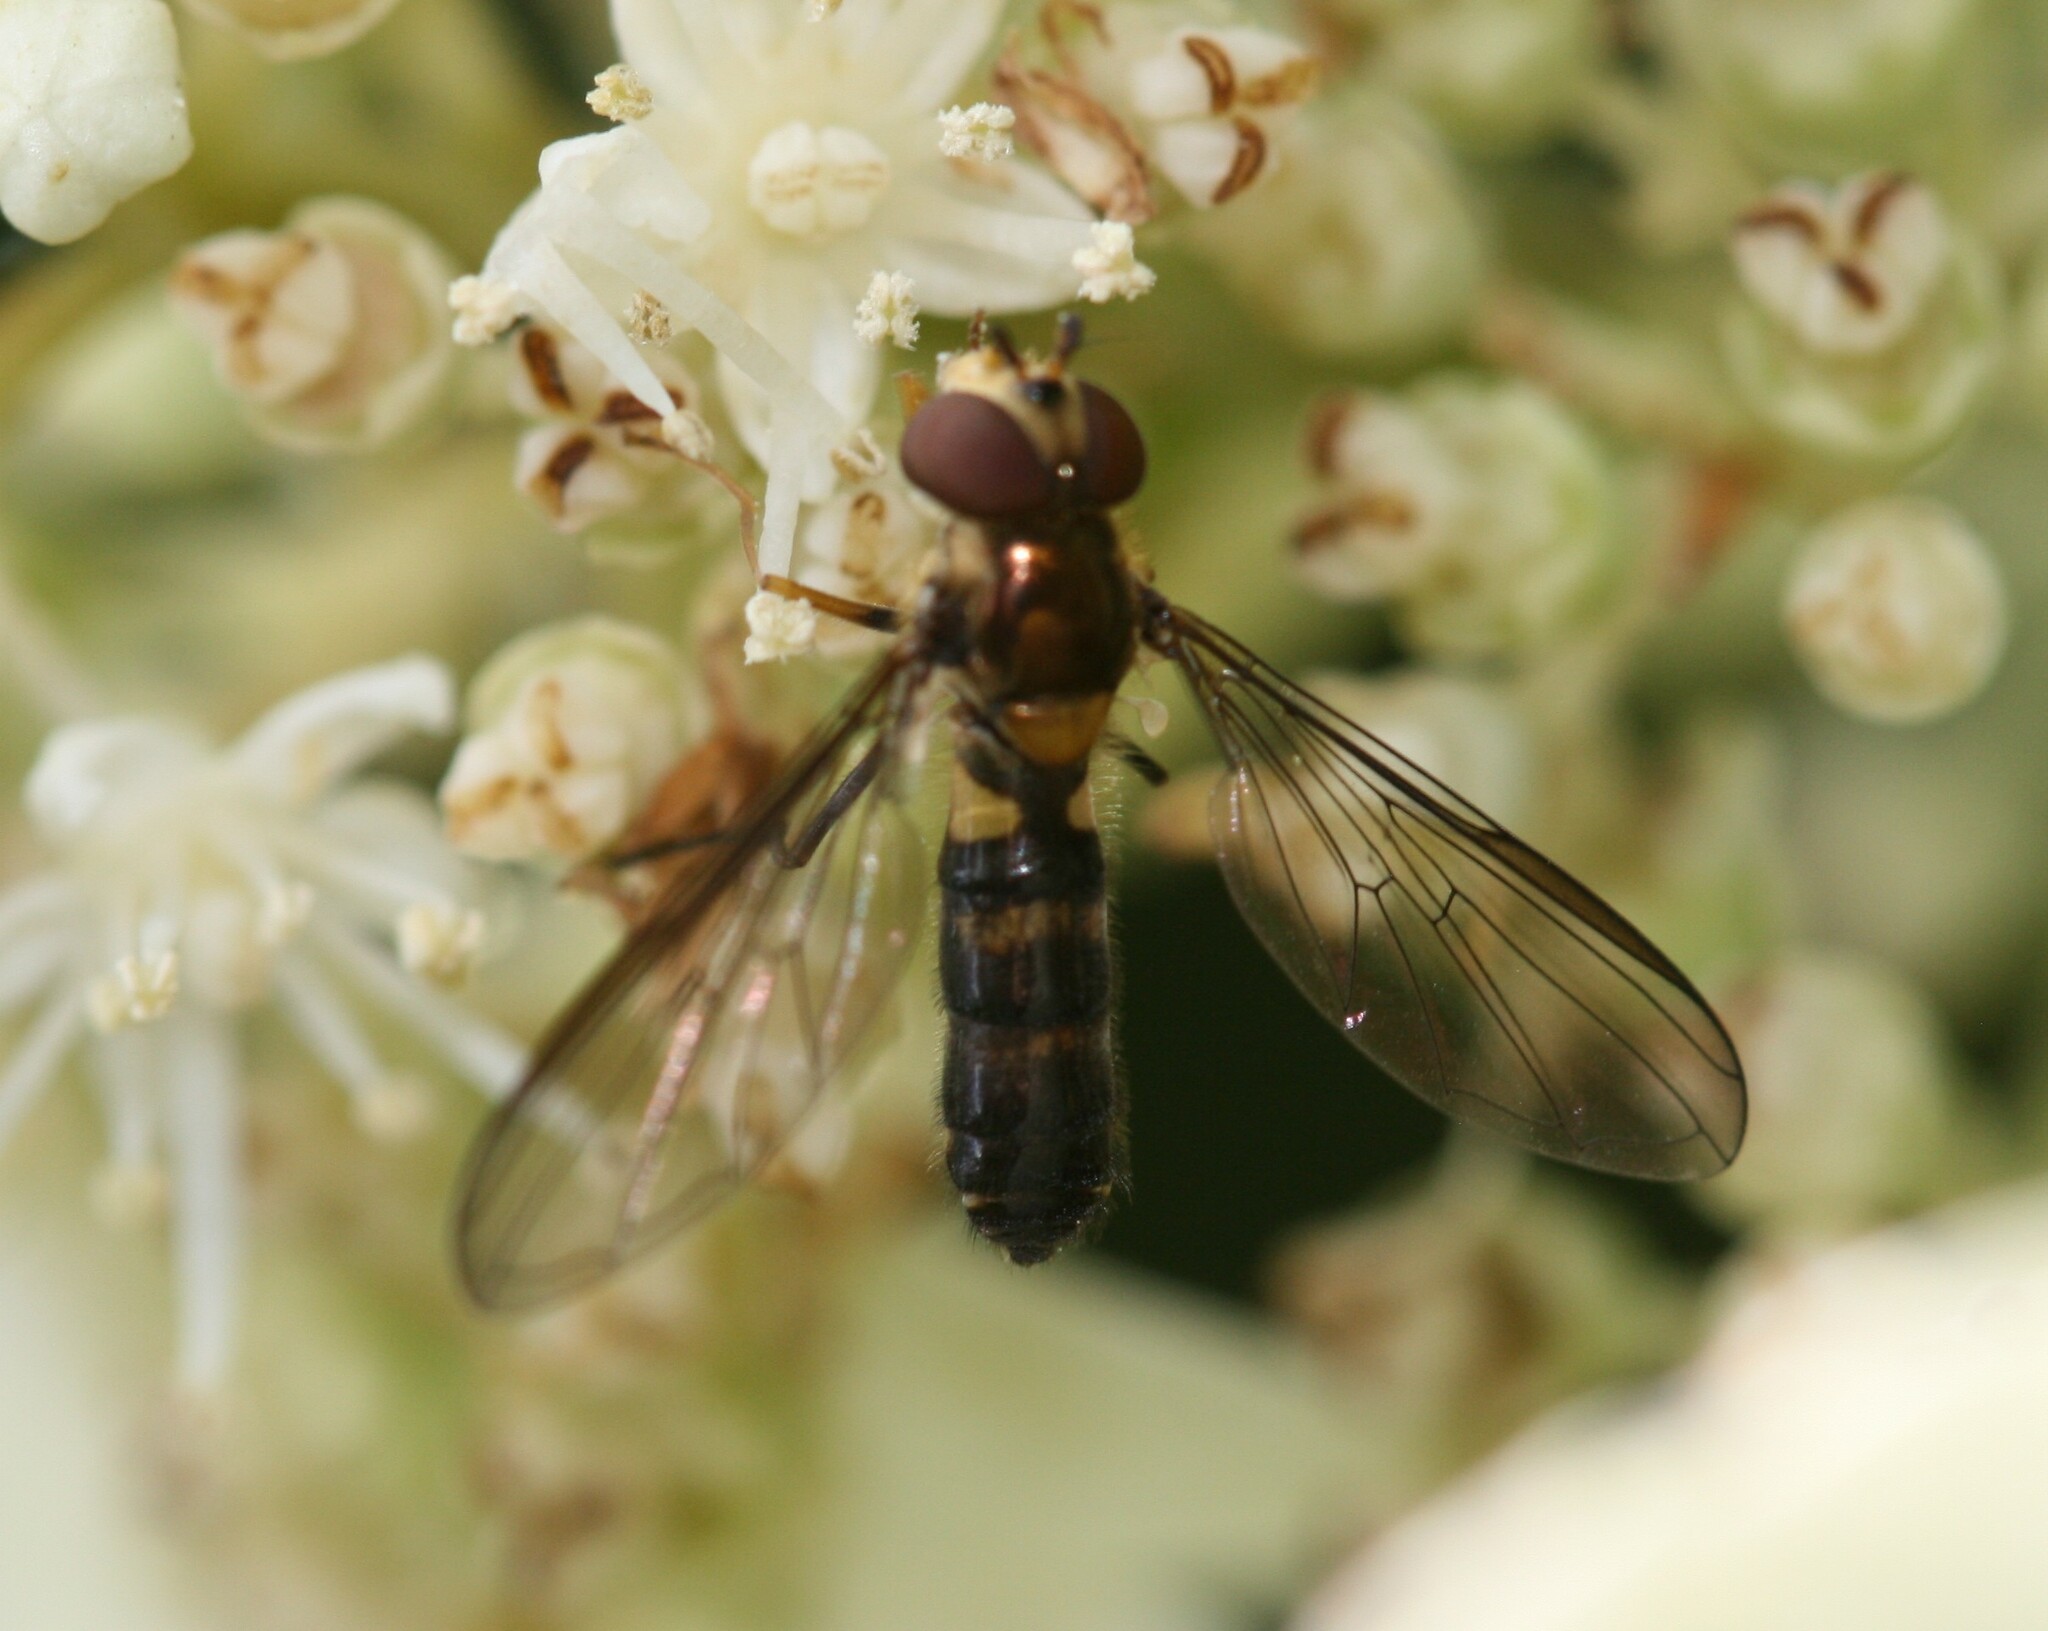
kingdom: Animalia
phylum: Arthropoda
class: Insecta
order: Diptera
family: Syrphidae
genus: Meliscaeva
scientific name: Meliscaeva cinctella
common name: American thintail fly
